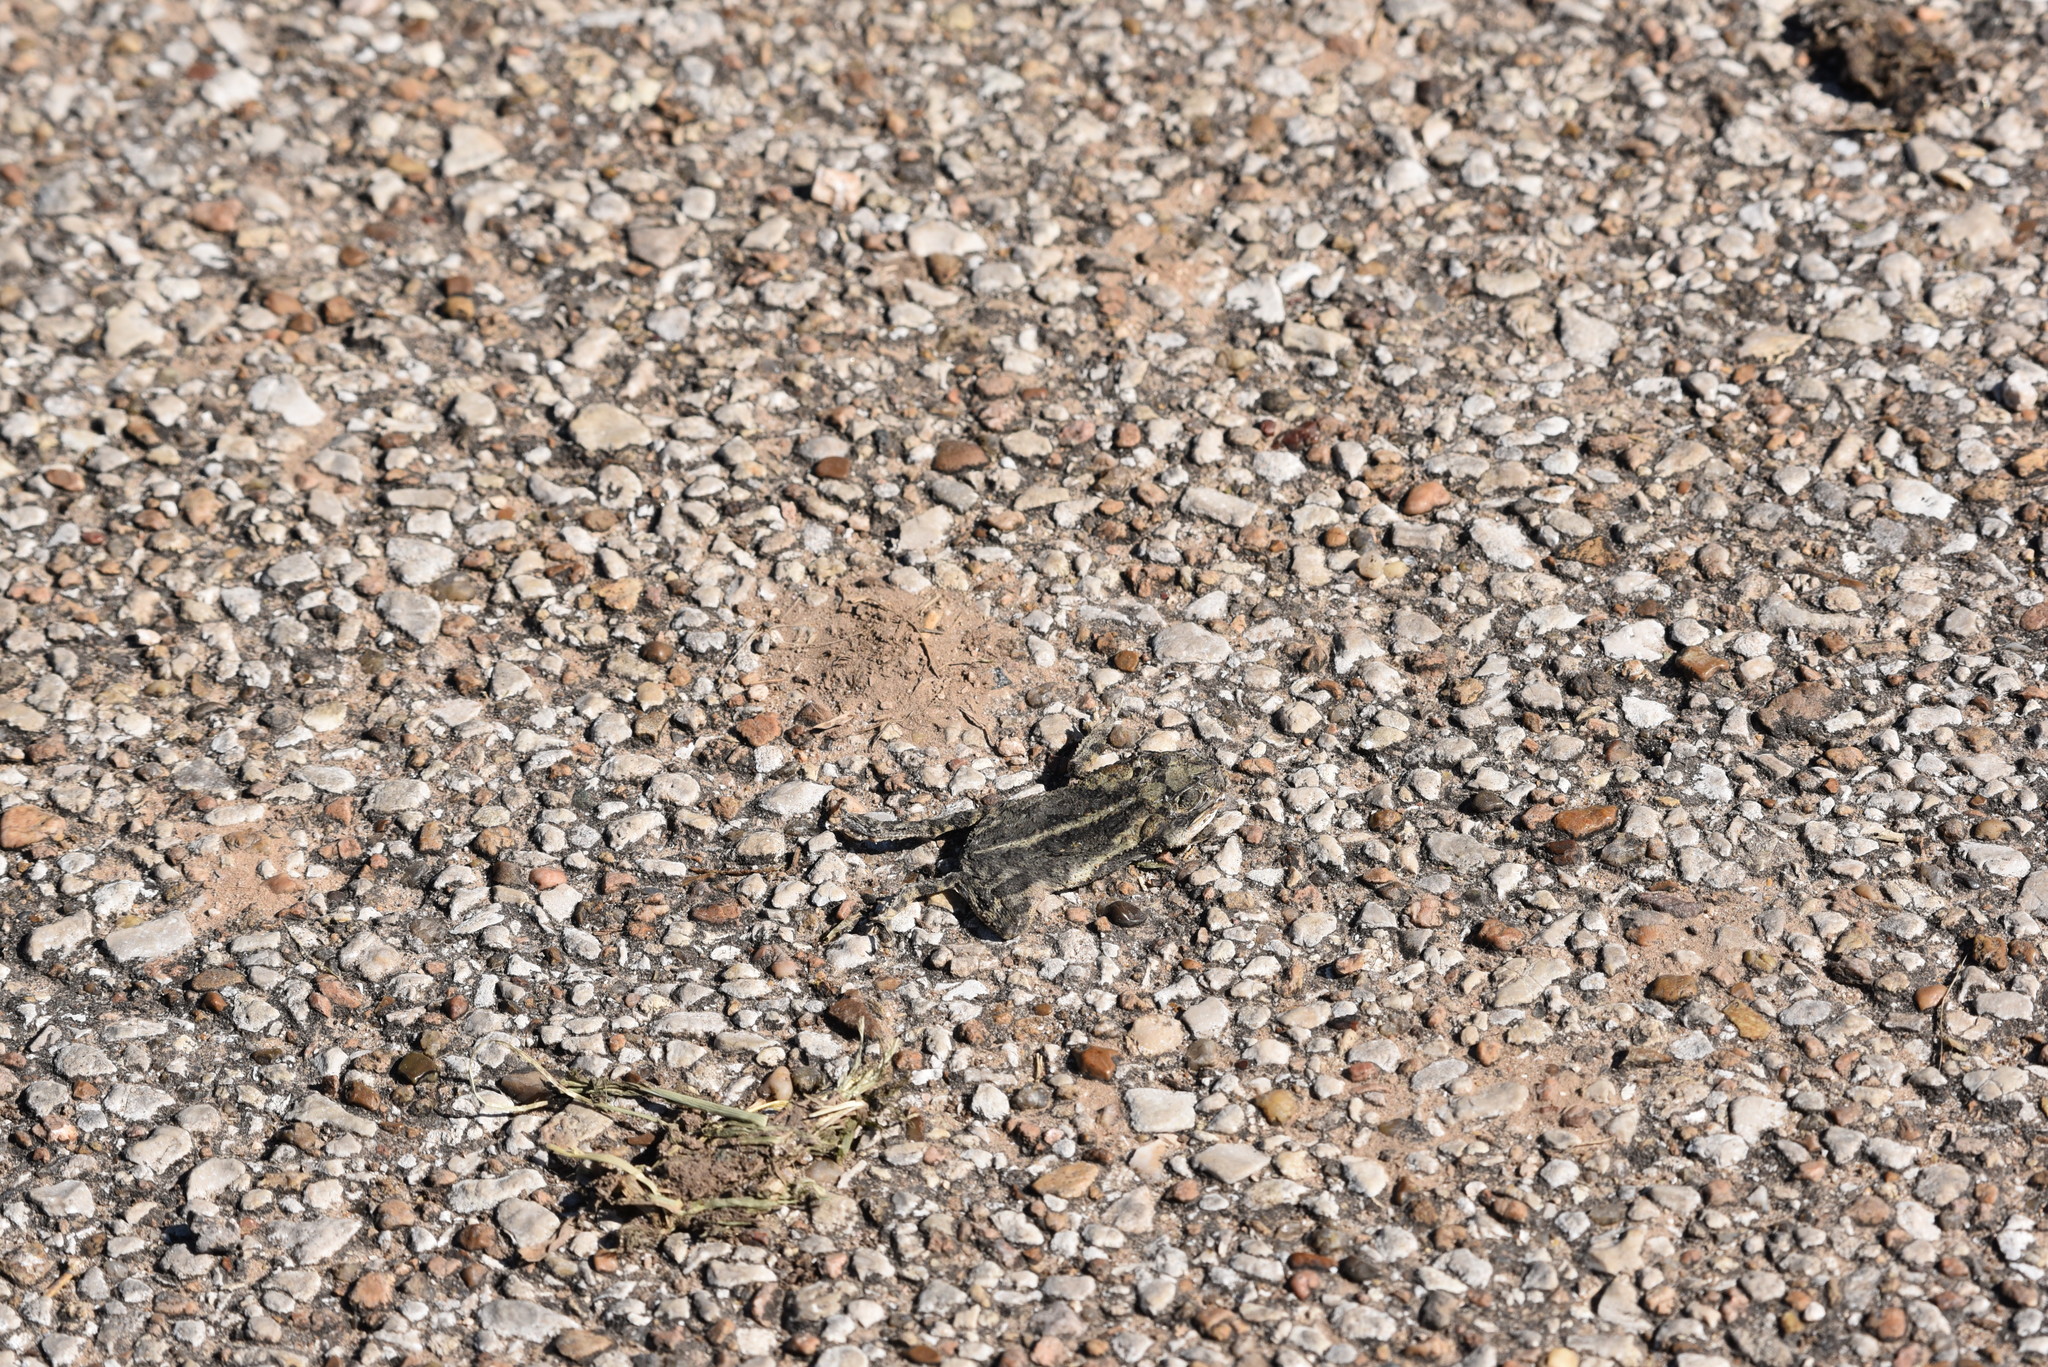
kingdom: Animalia
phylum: Chordata
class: Amphibia
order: Anura
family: Bufonidae
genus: Incilius
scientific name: Incilius nebulifer
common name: Gulf coast toad
